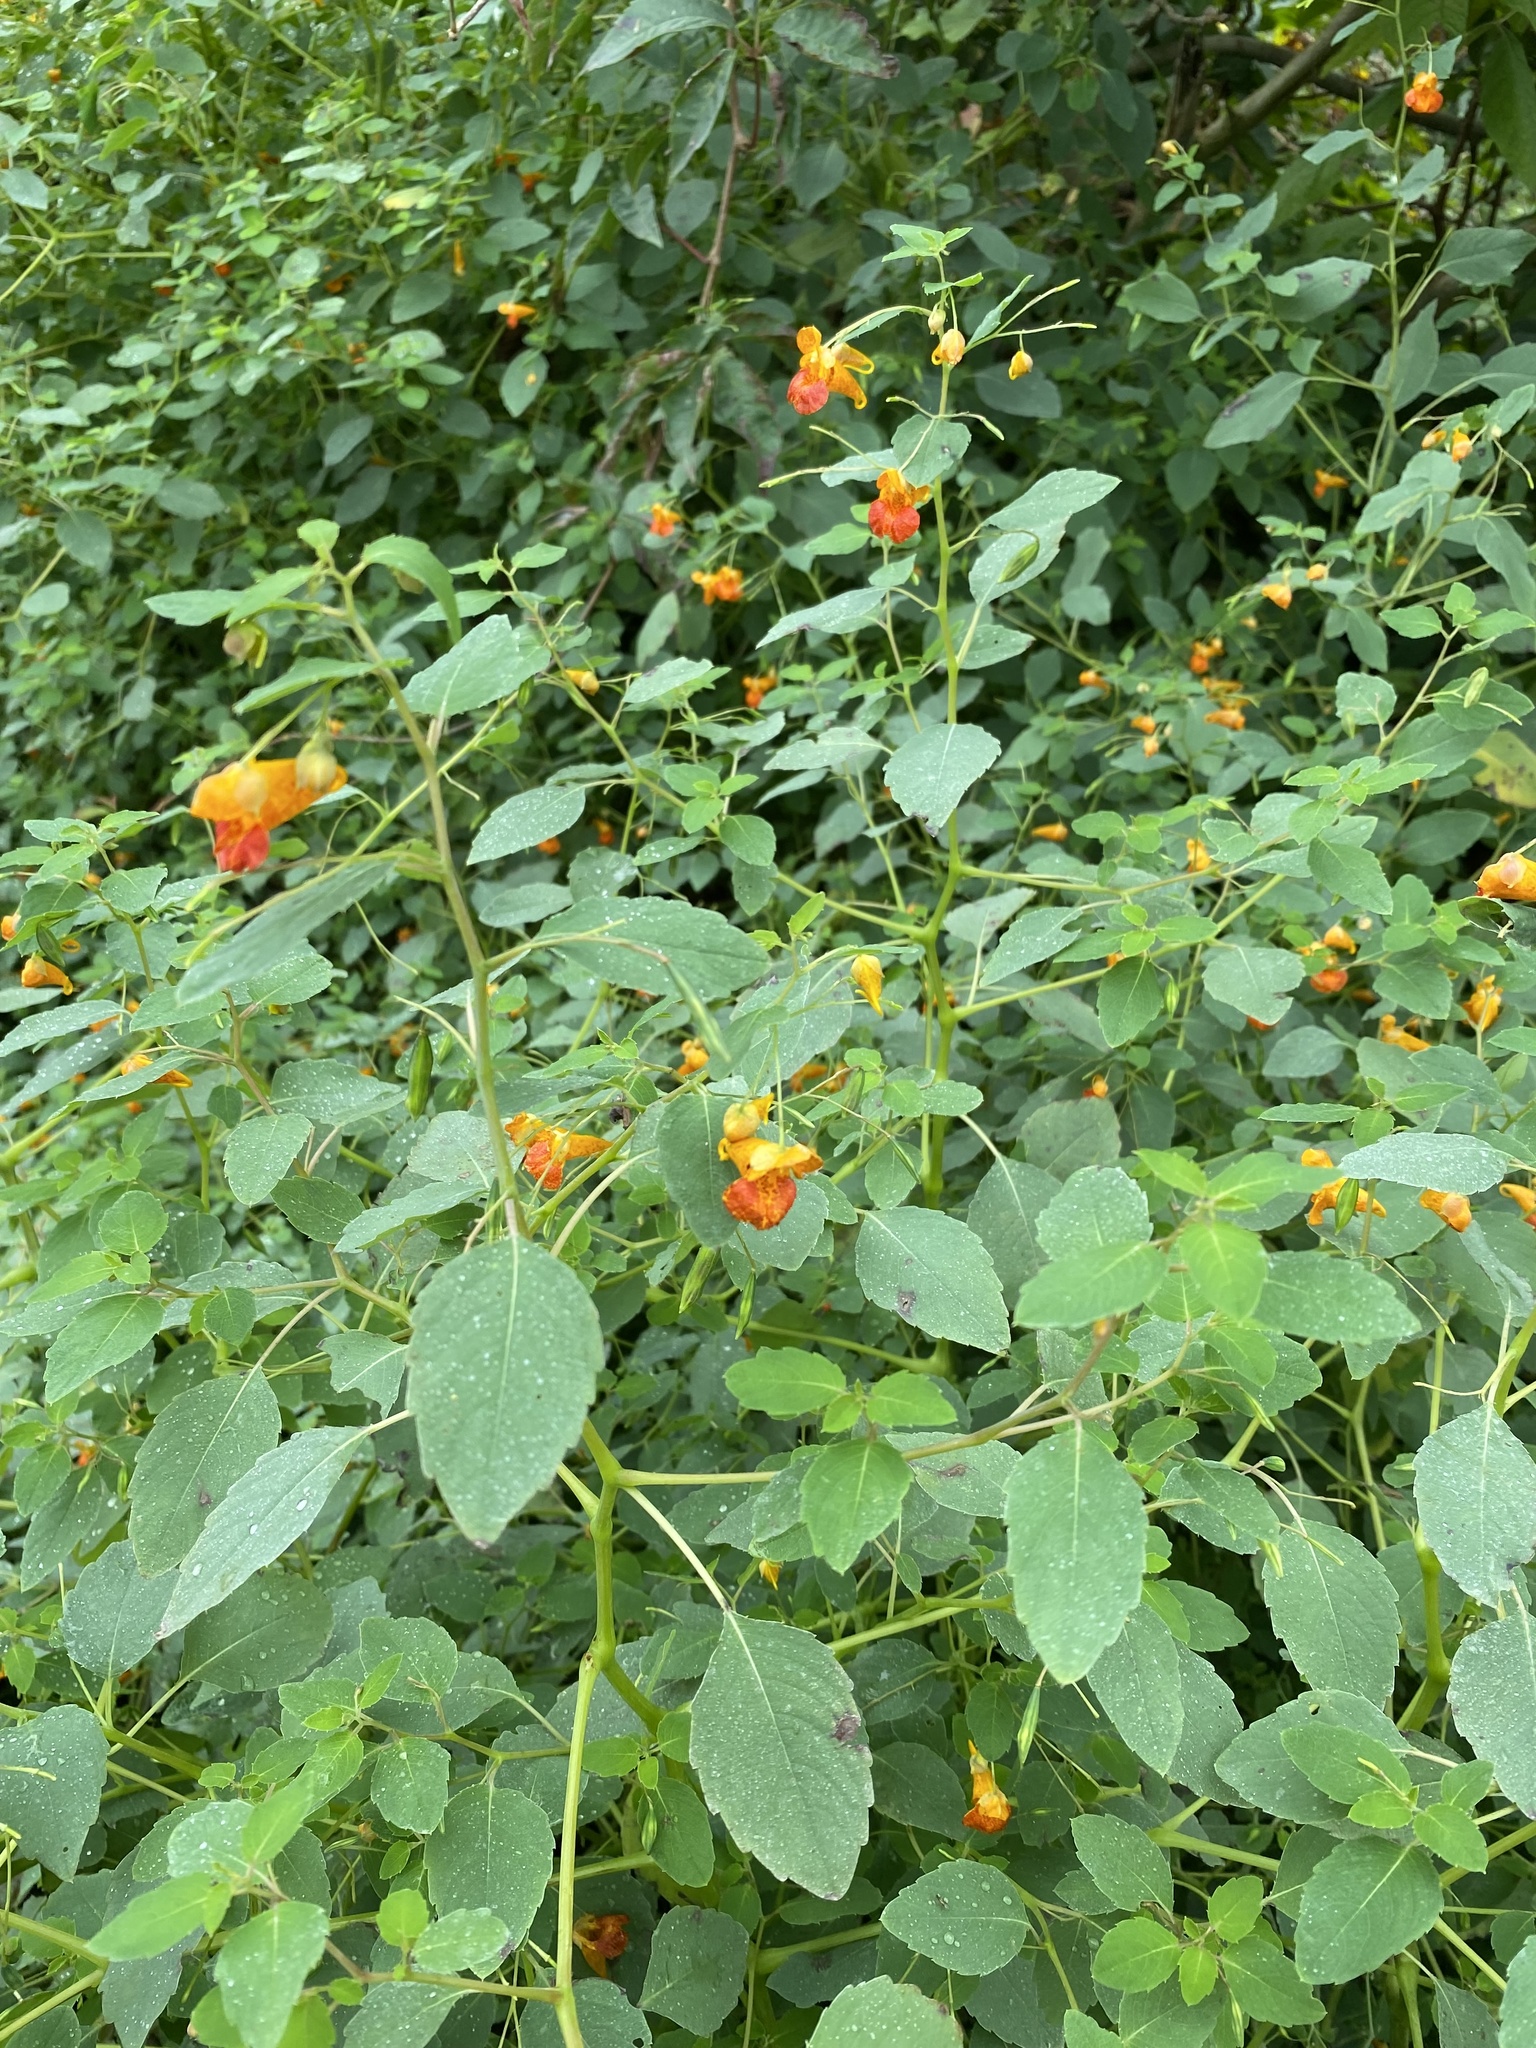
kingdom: Plantae
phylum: Tracheophyta
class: Magnoliopsida
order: Ericales
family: Balsaminaceae
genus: Impatiens
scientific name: Impatiens capensis
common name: Orange balsam
